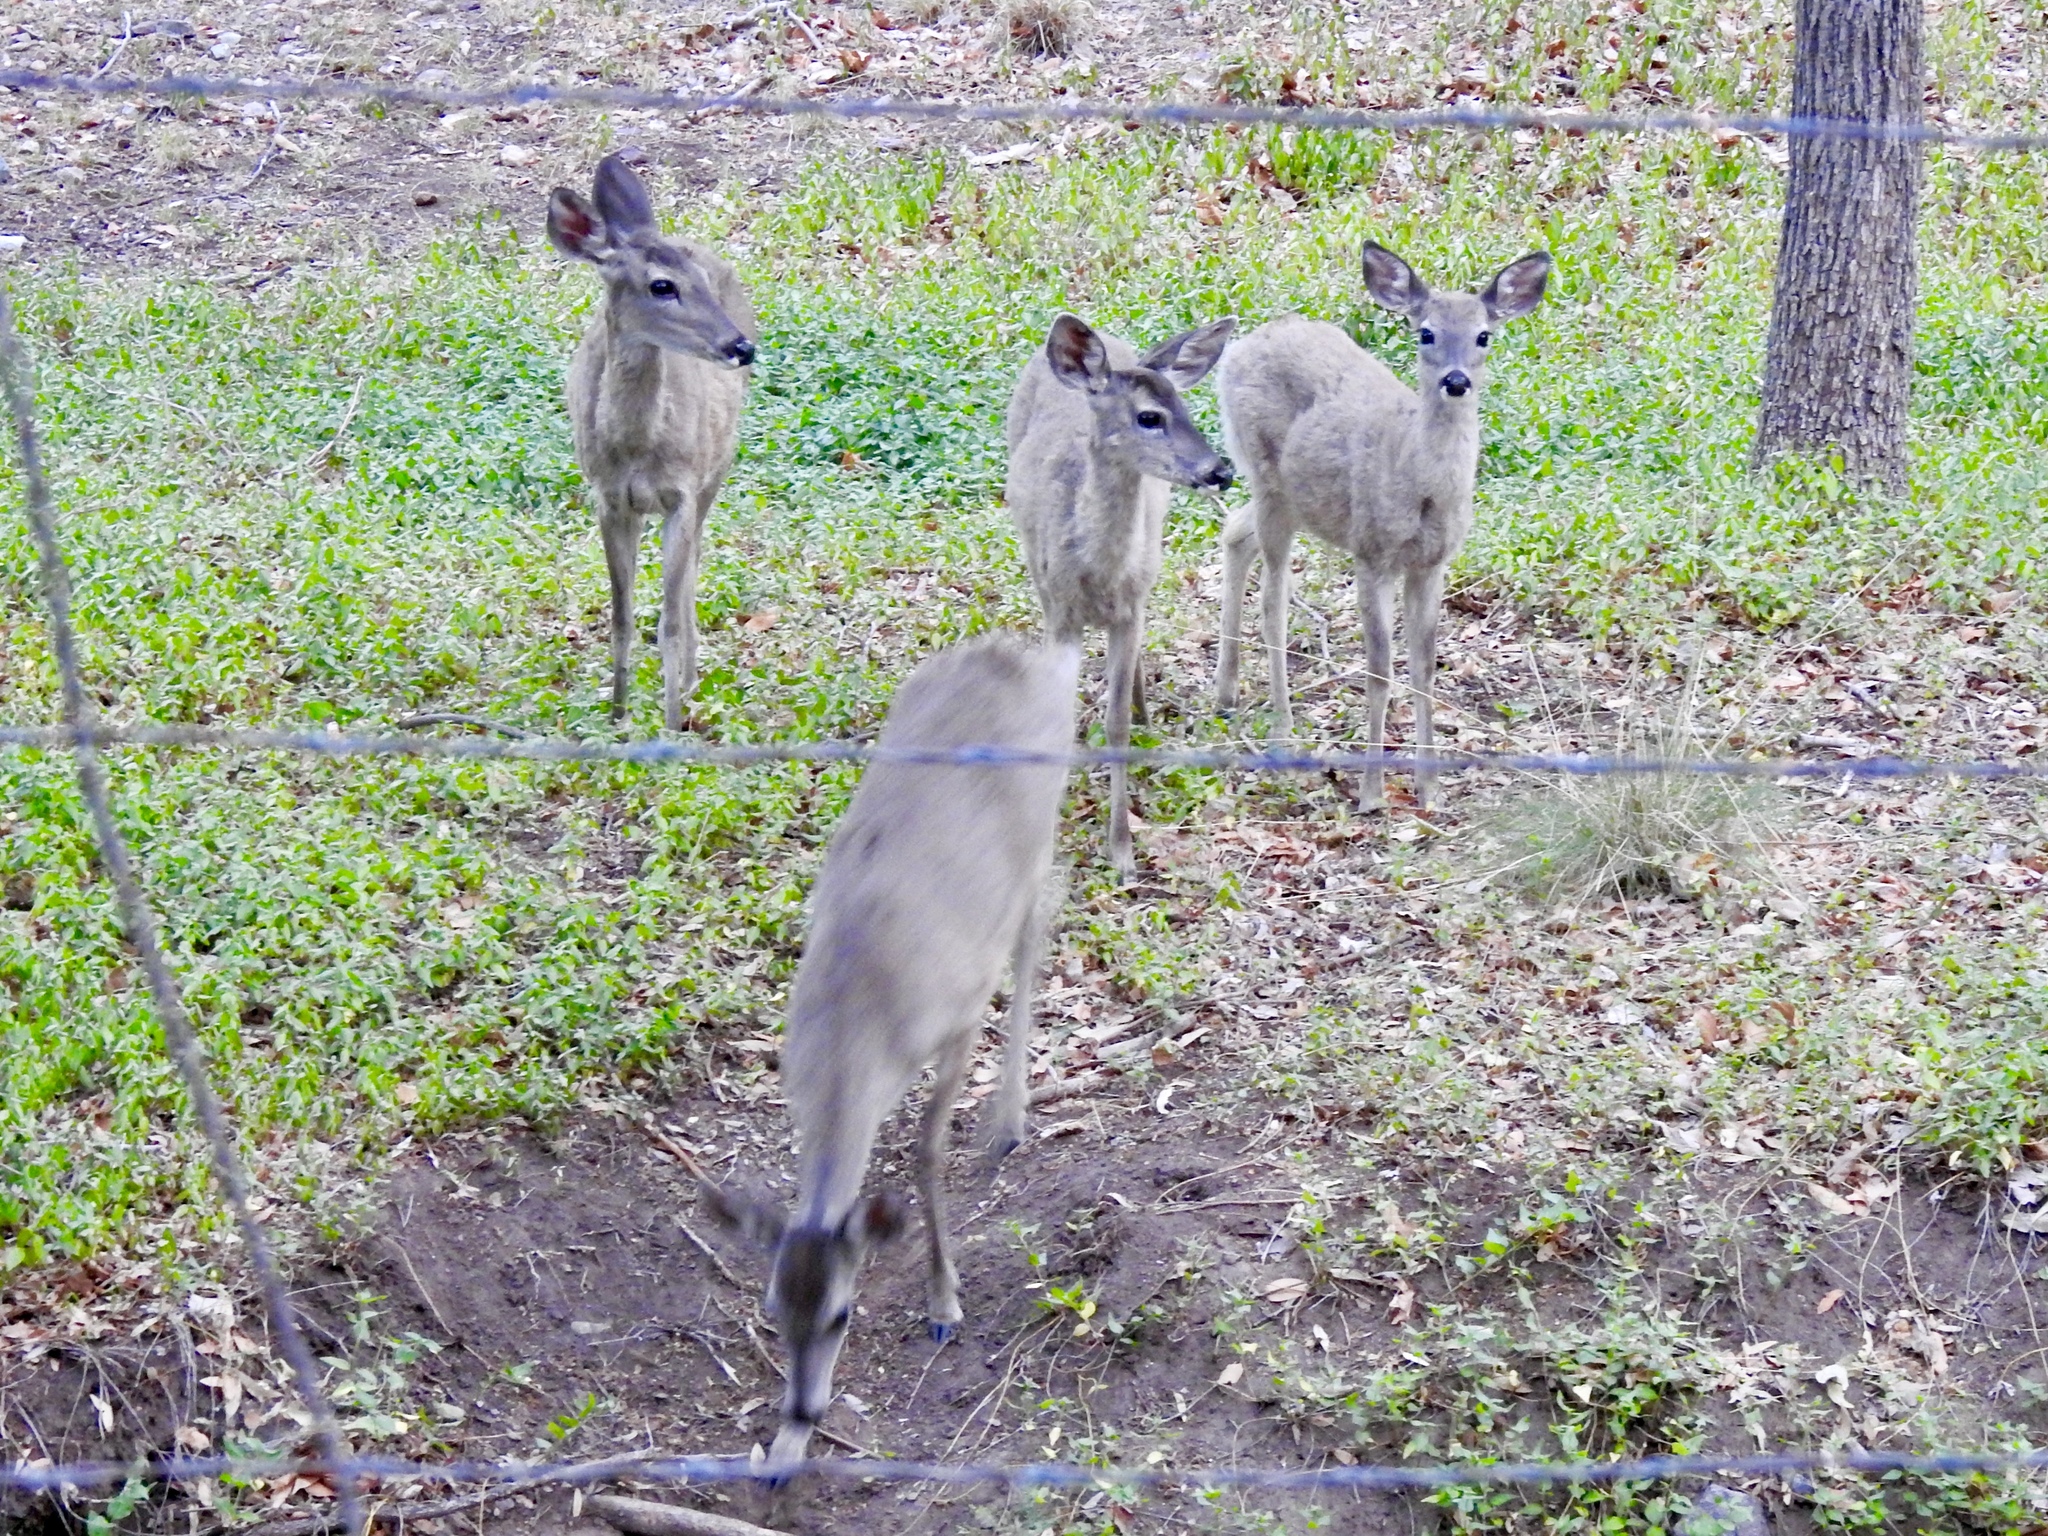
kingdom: Animalia
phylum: Chordata
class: Mammalia
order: Artiodactyla
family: Cervidae
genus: Odocoileus
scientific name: Odocoileus virginianus
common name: White-tailed deer
